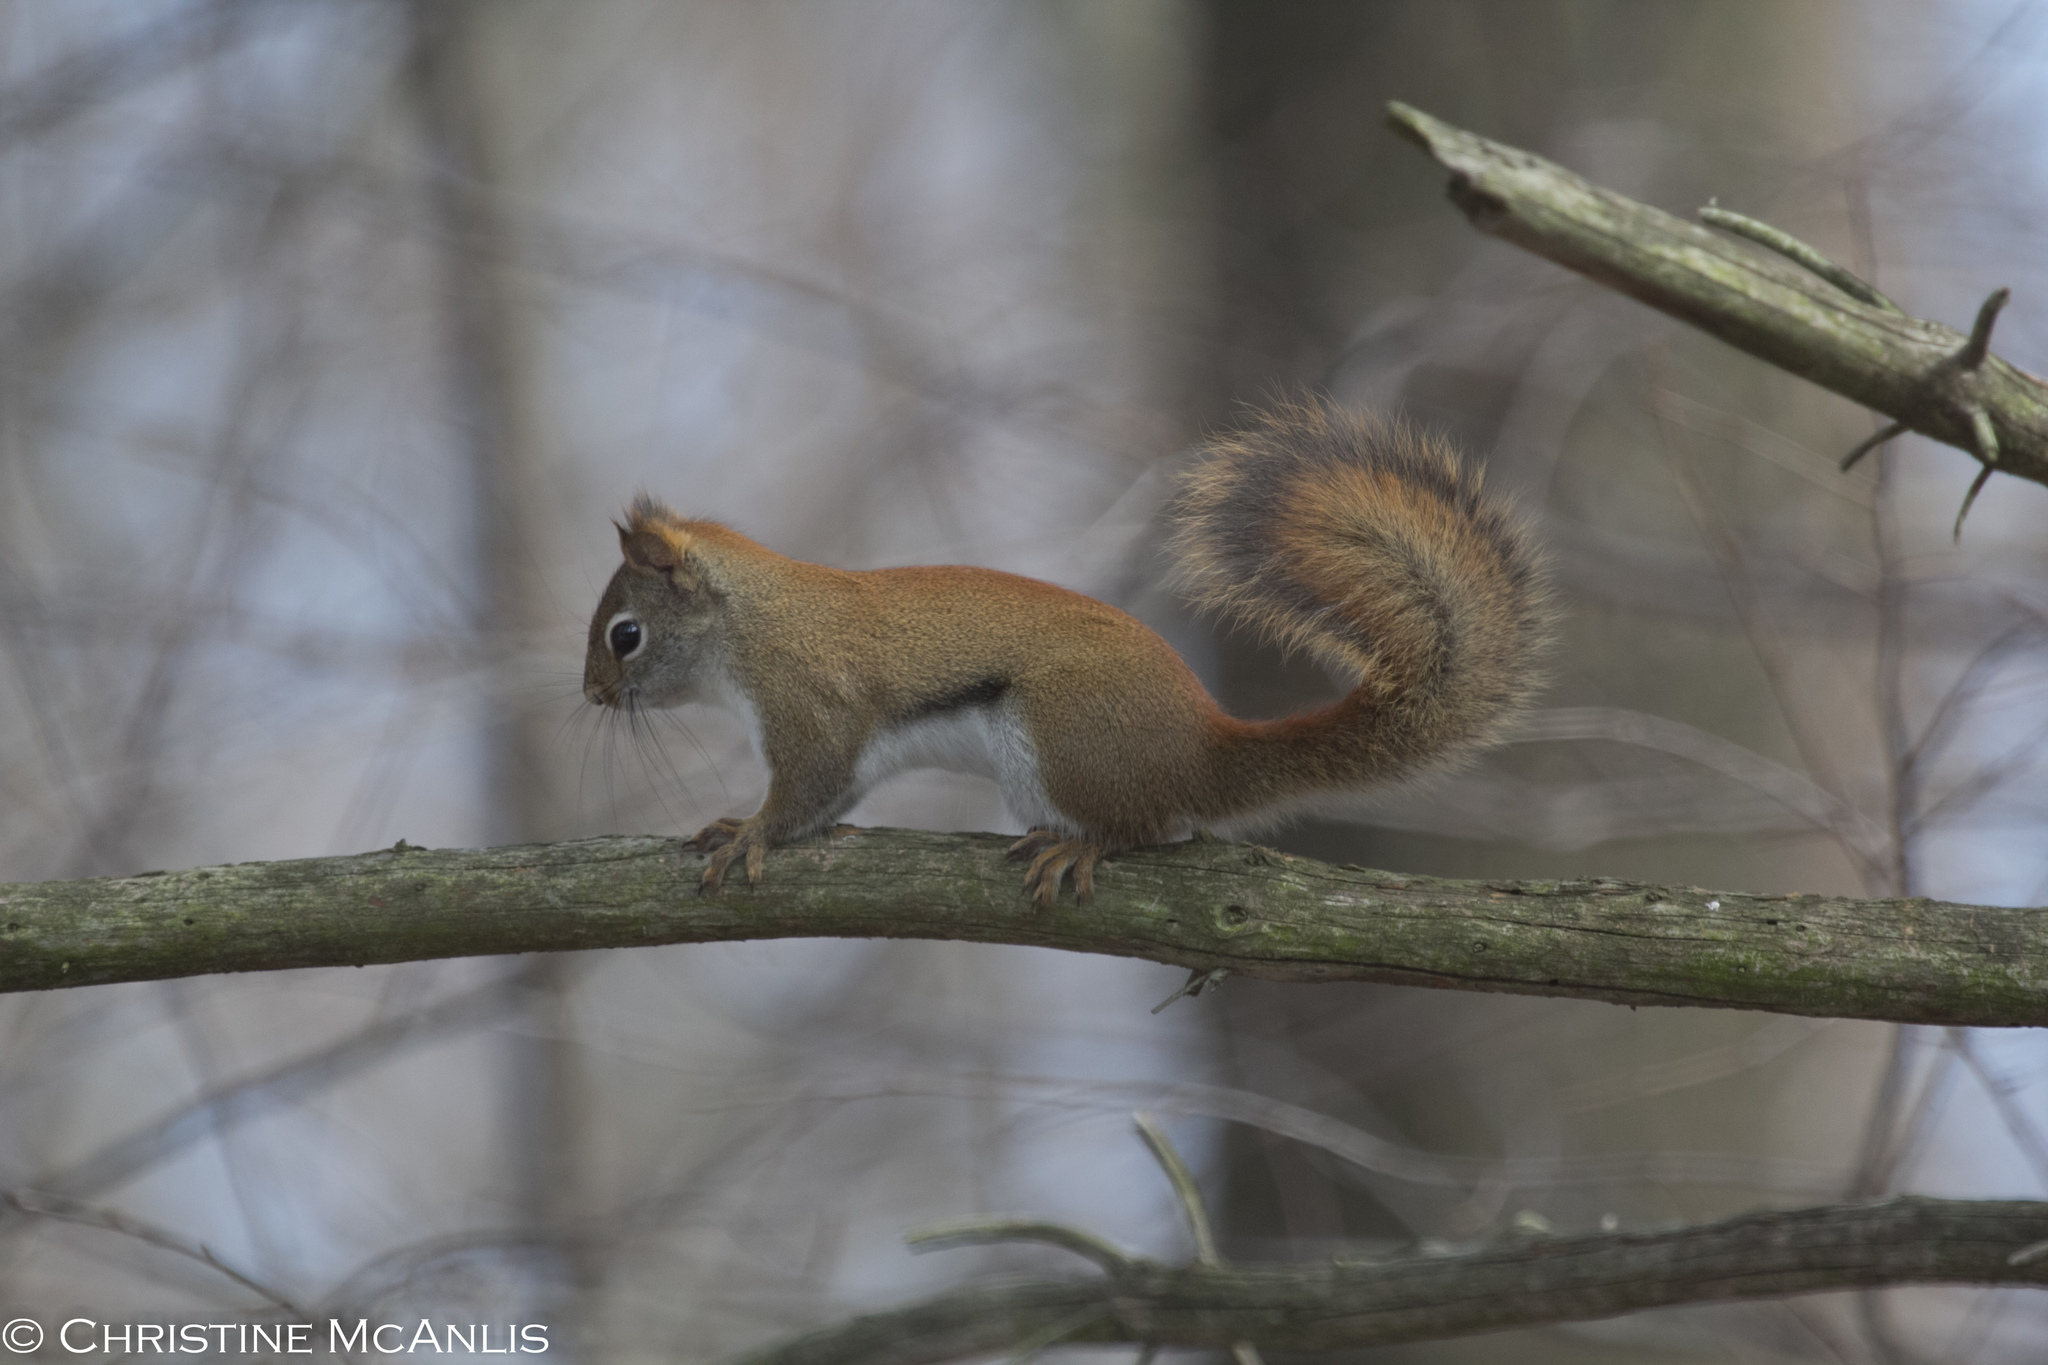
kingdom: Animalia
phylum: Chordata
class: Mammalia
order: Rodentia
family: Sciuridae
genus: Tamiasciurus
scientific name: Tamiasciurus hudsonicus
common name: Red squirrel
